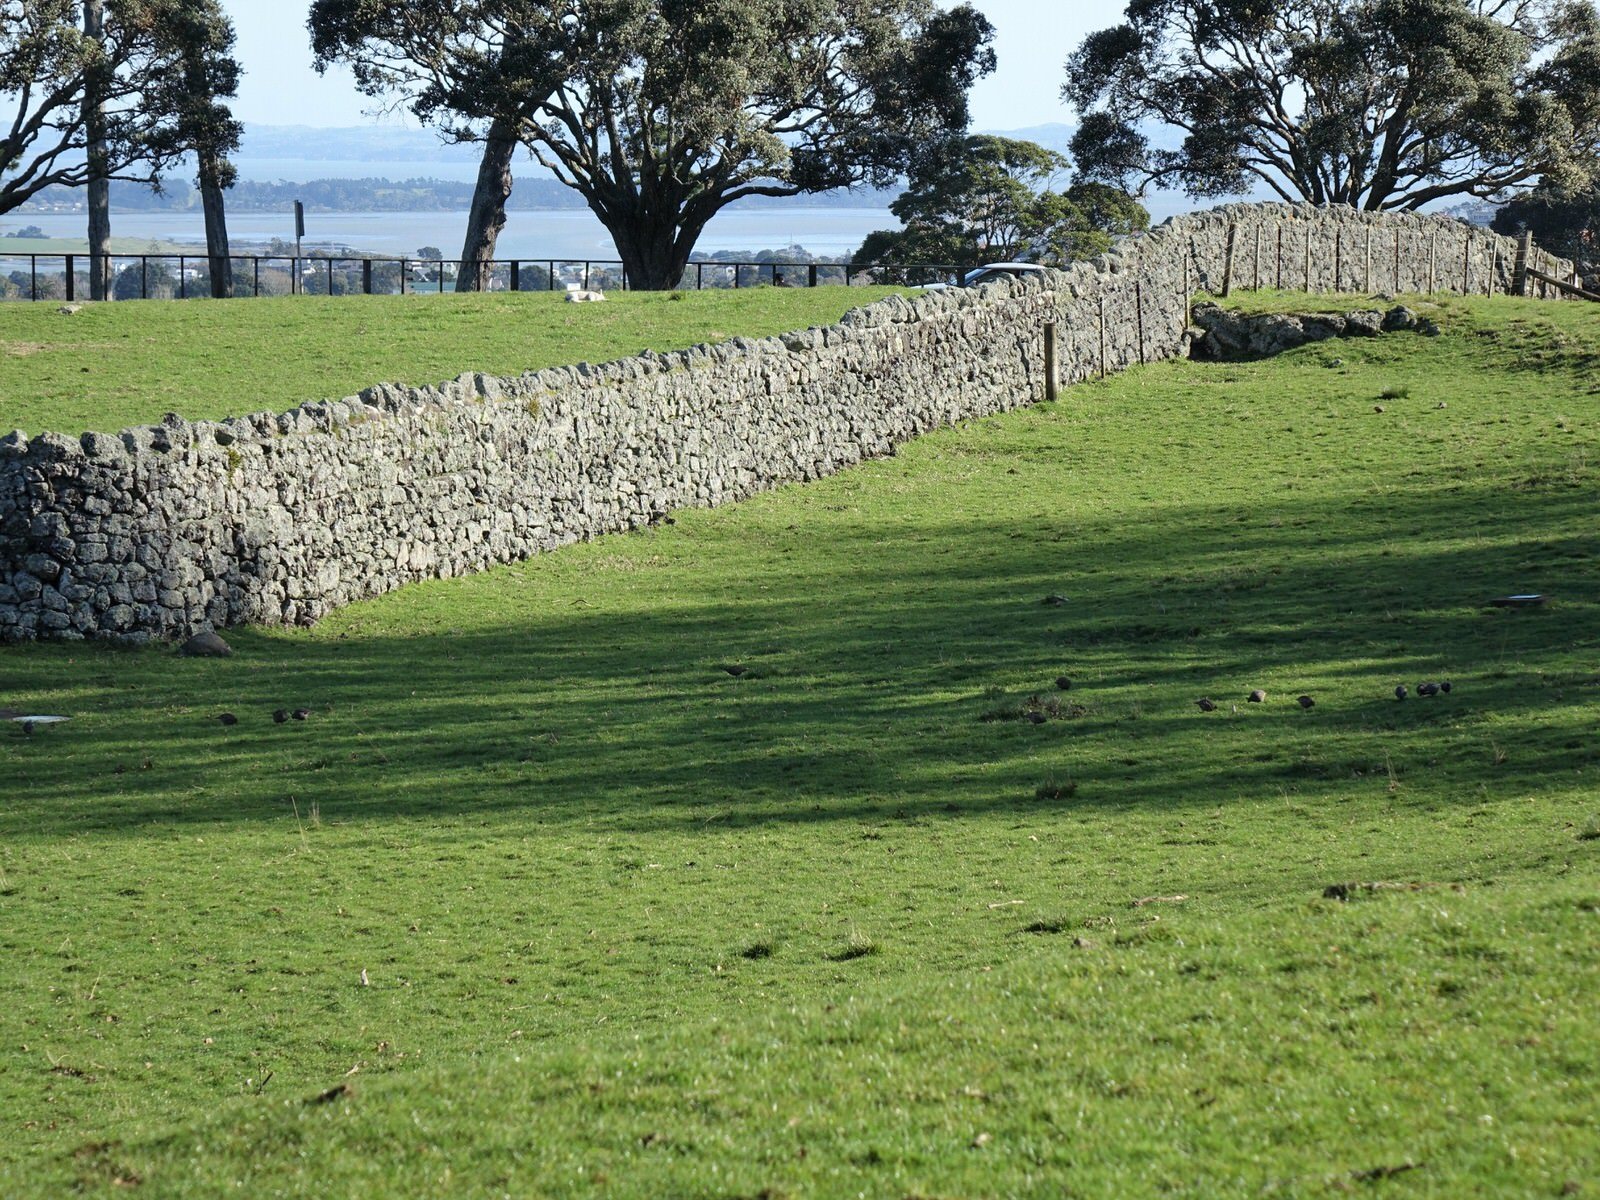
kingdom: Animalia
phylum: Chordata
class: Aves
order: Galliformes
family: Odontophoridae
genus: Callipepla
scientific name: Callipepla californica
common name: California quail
